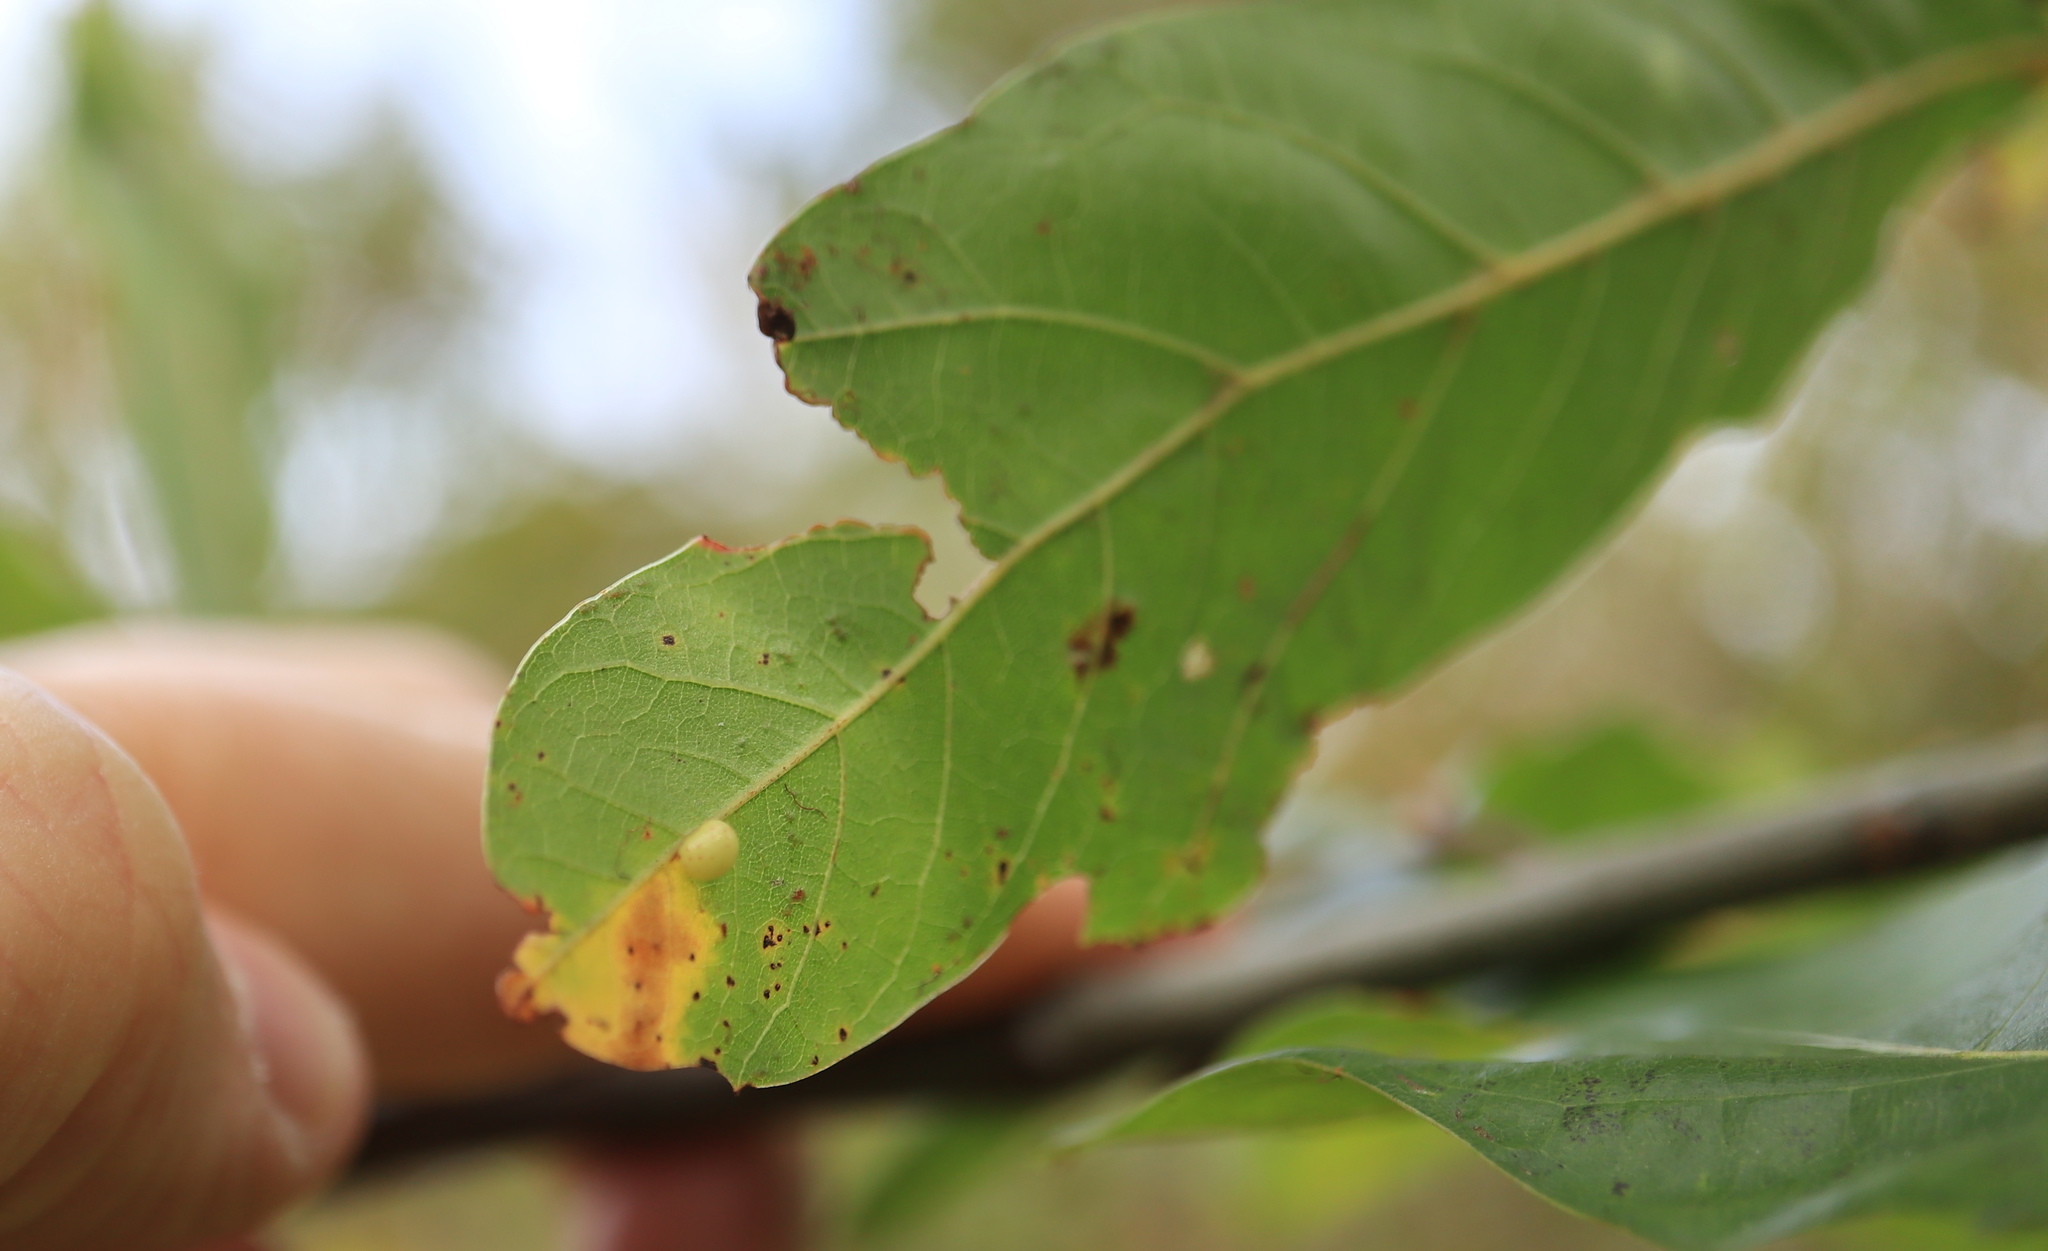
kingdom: Animalia
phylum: Arthropoda
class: Insecta
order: Hymenoptera
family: Cynipidae
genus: Zopheroteras
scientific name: Zopheroteras
